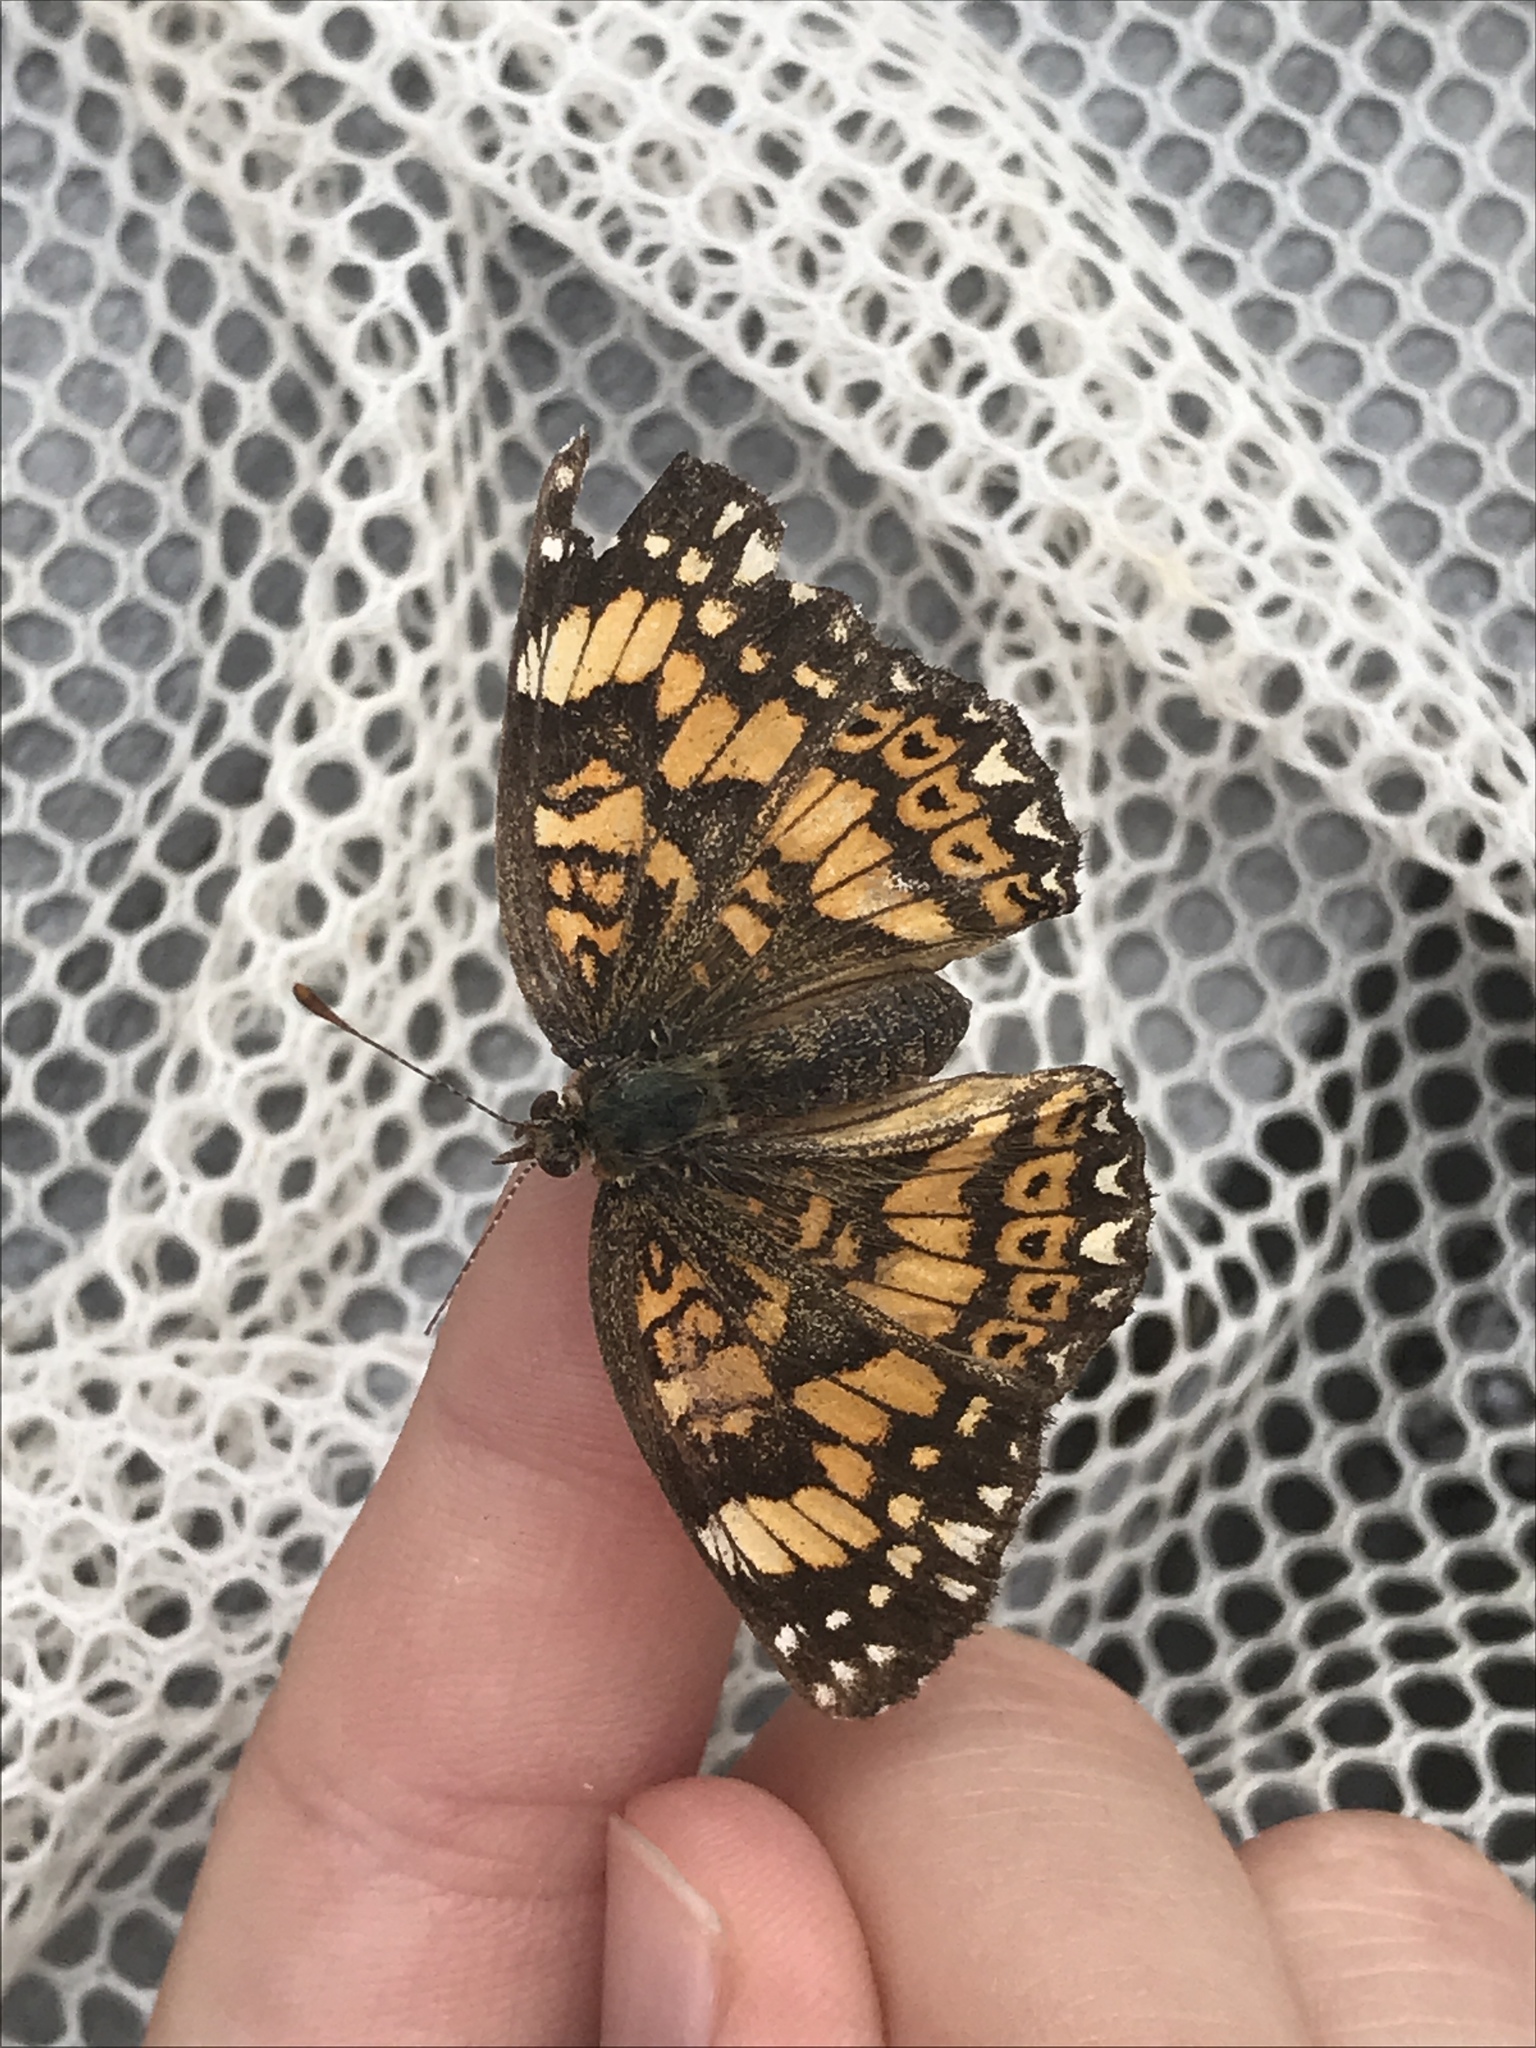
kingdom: Animalia
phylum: Arthropoda
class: Insecta
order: Lepidoptera
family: Nymphalidae
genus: Chlosyne
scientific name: Chlosyne gorgone
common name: Gorgone checkerspot
